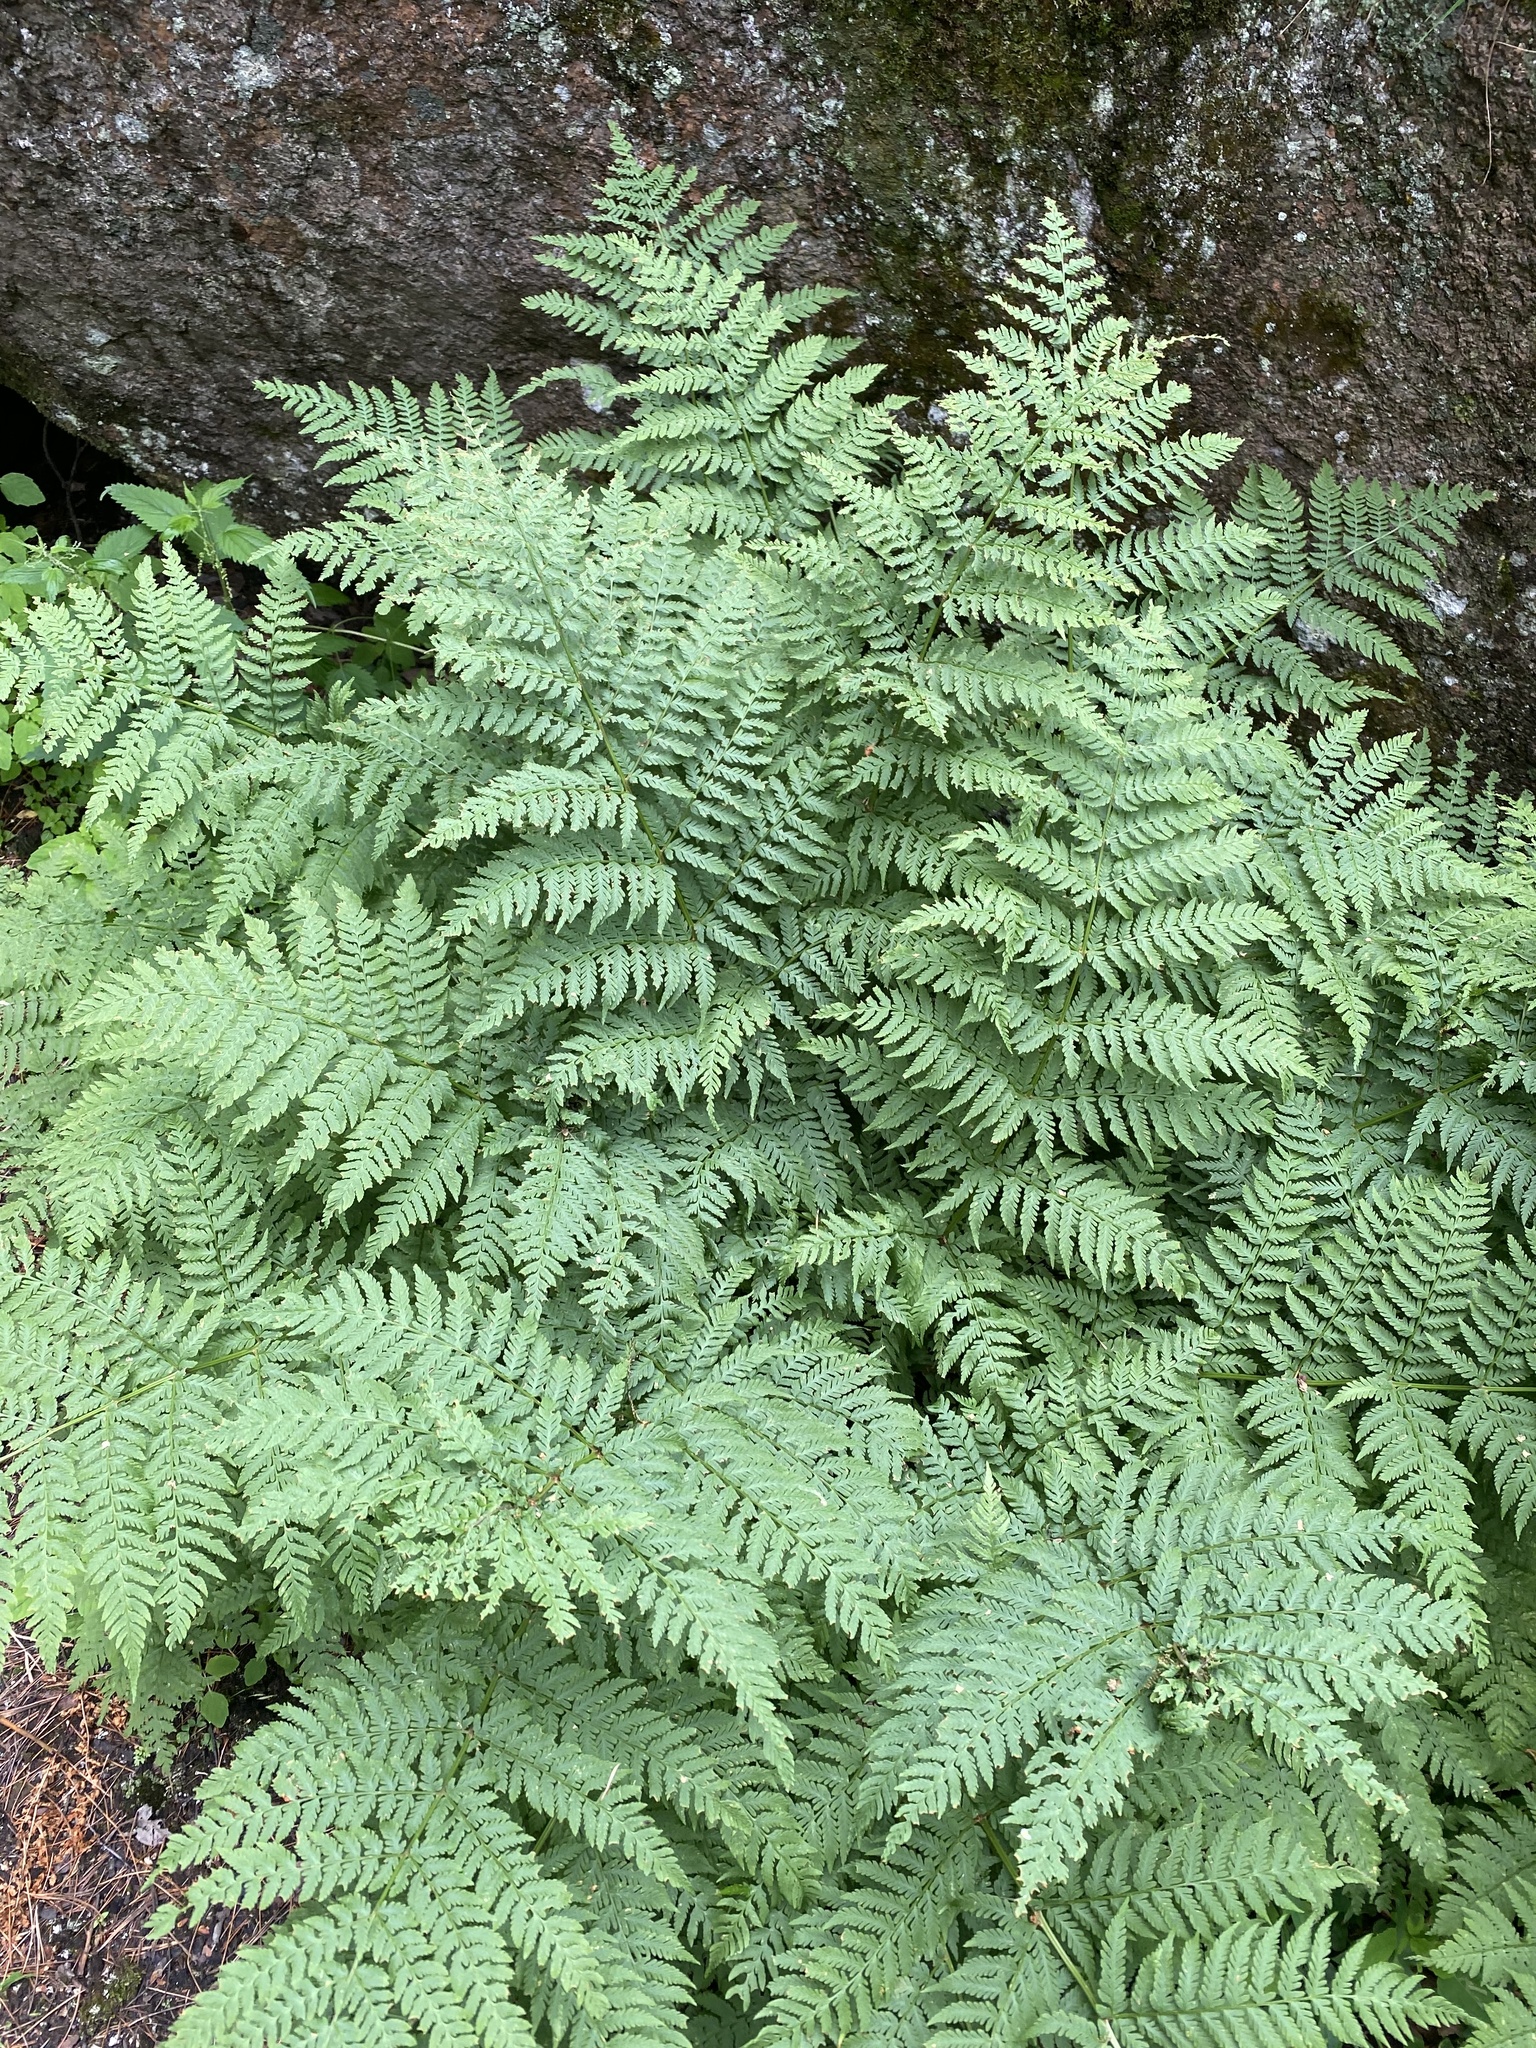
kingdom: Plantae
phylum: Tracheophyta
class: Polypodiopsida
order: Polypodiales
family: Athyriaceae
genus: Athyrium
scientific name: Athyrium filix-femina
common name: Lady fern
